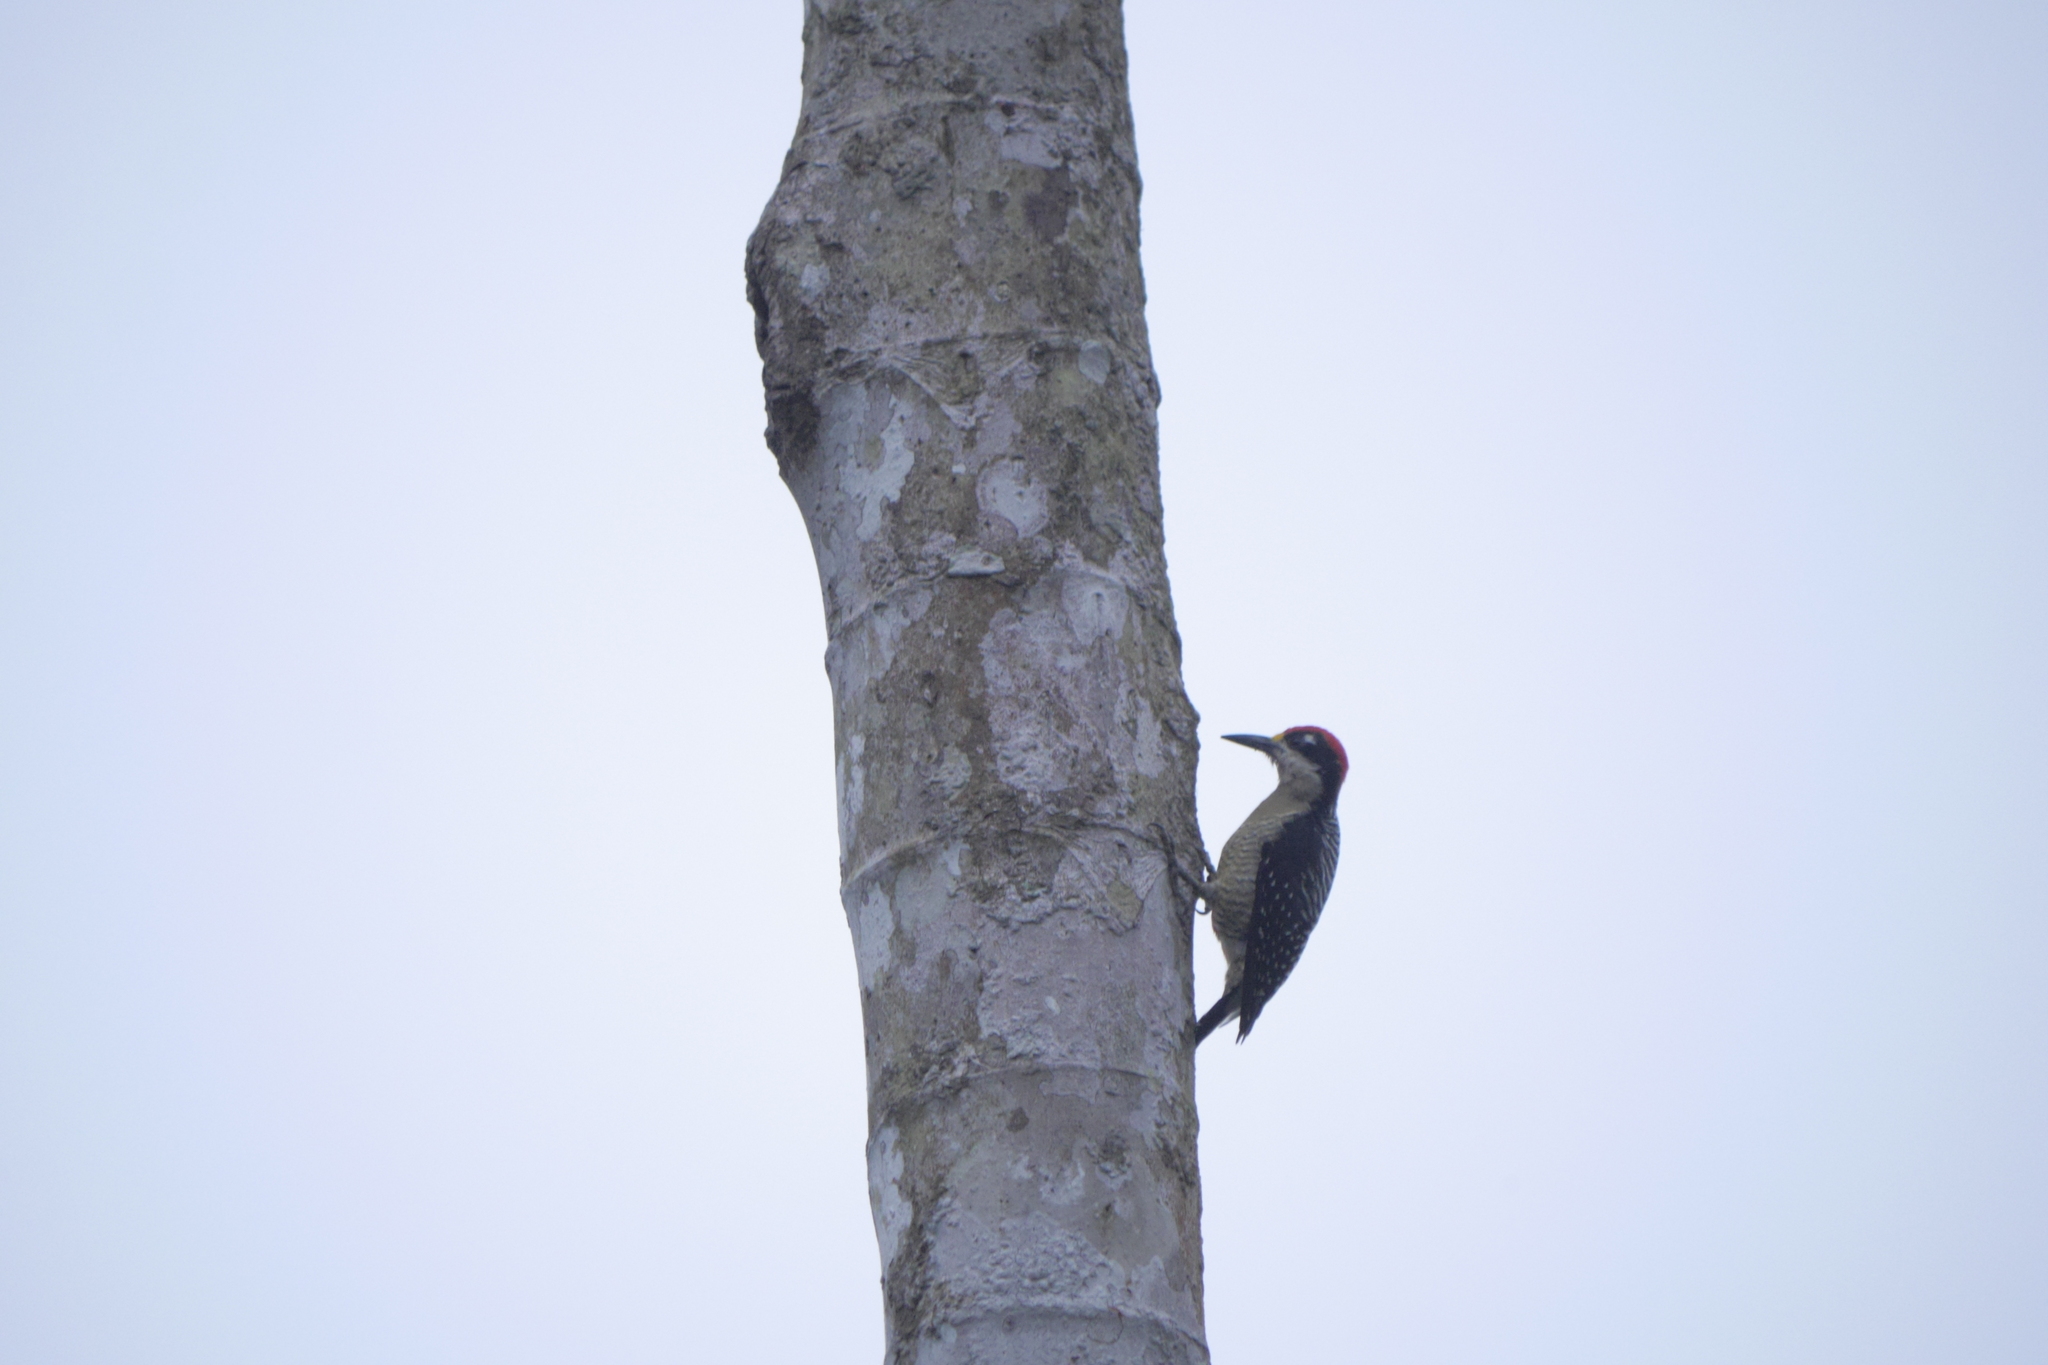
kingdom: Animalia
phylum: Chordata
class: Aves
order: Piciformes
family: Picidae
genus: Melanerpes
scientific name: Melanerpes pucherani
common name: Black-cheeked woodpecker
